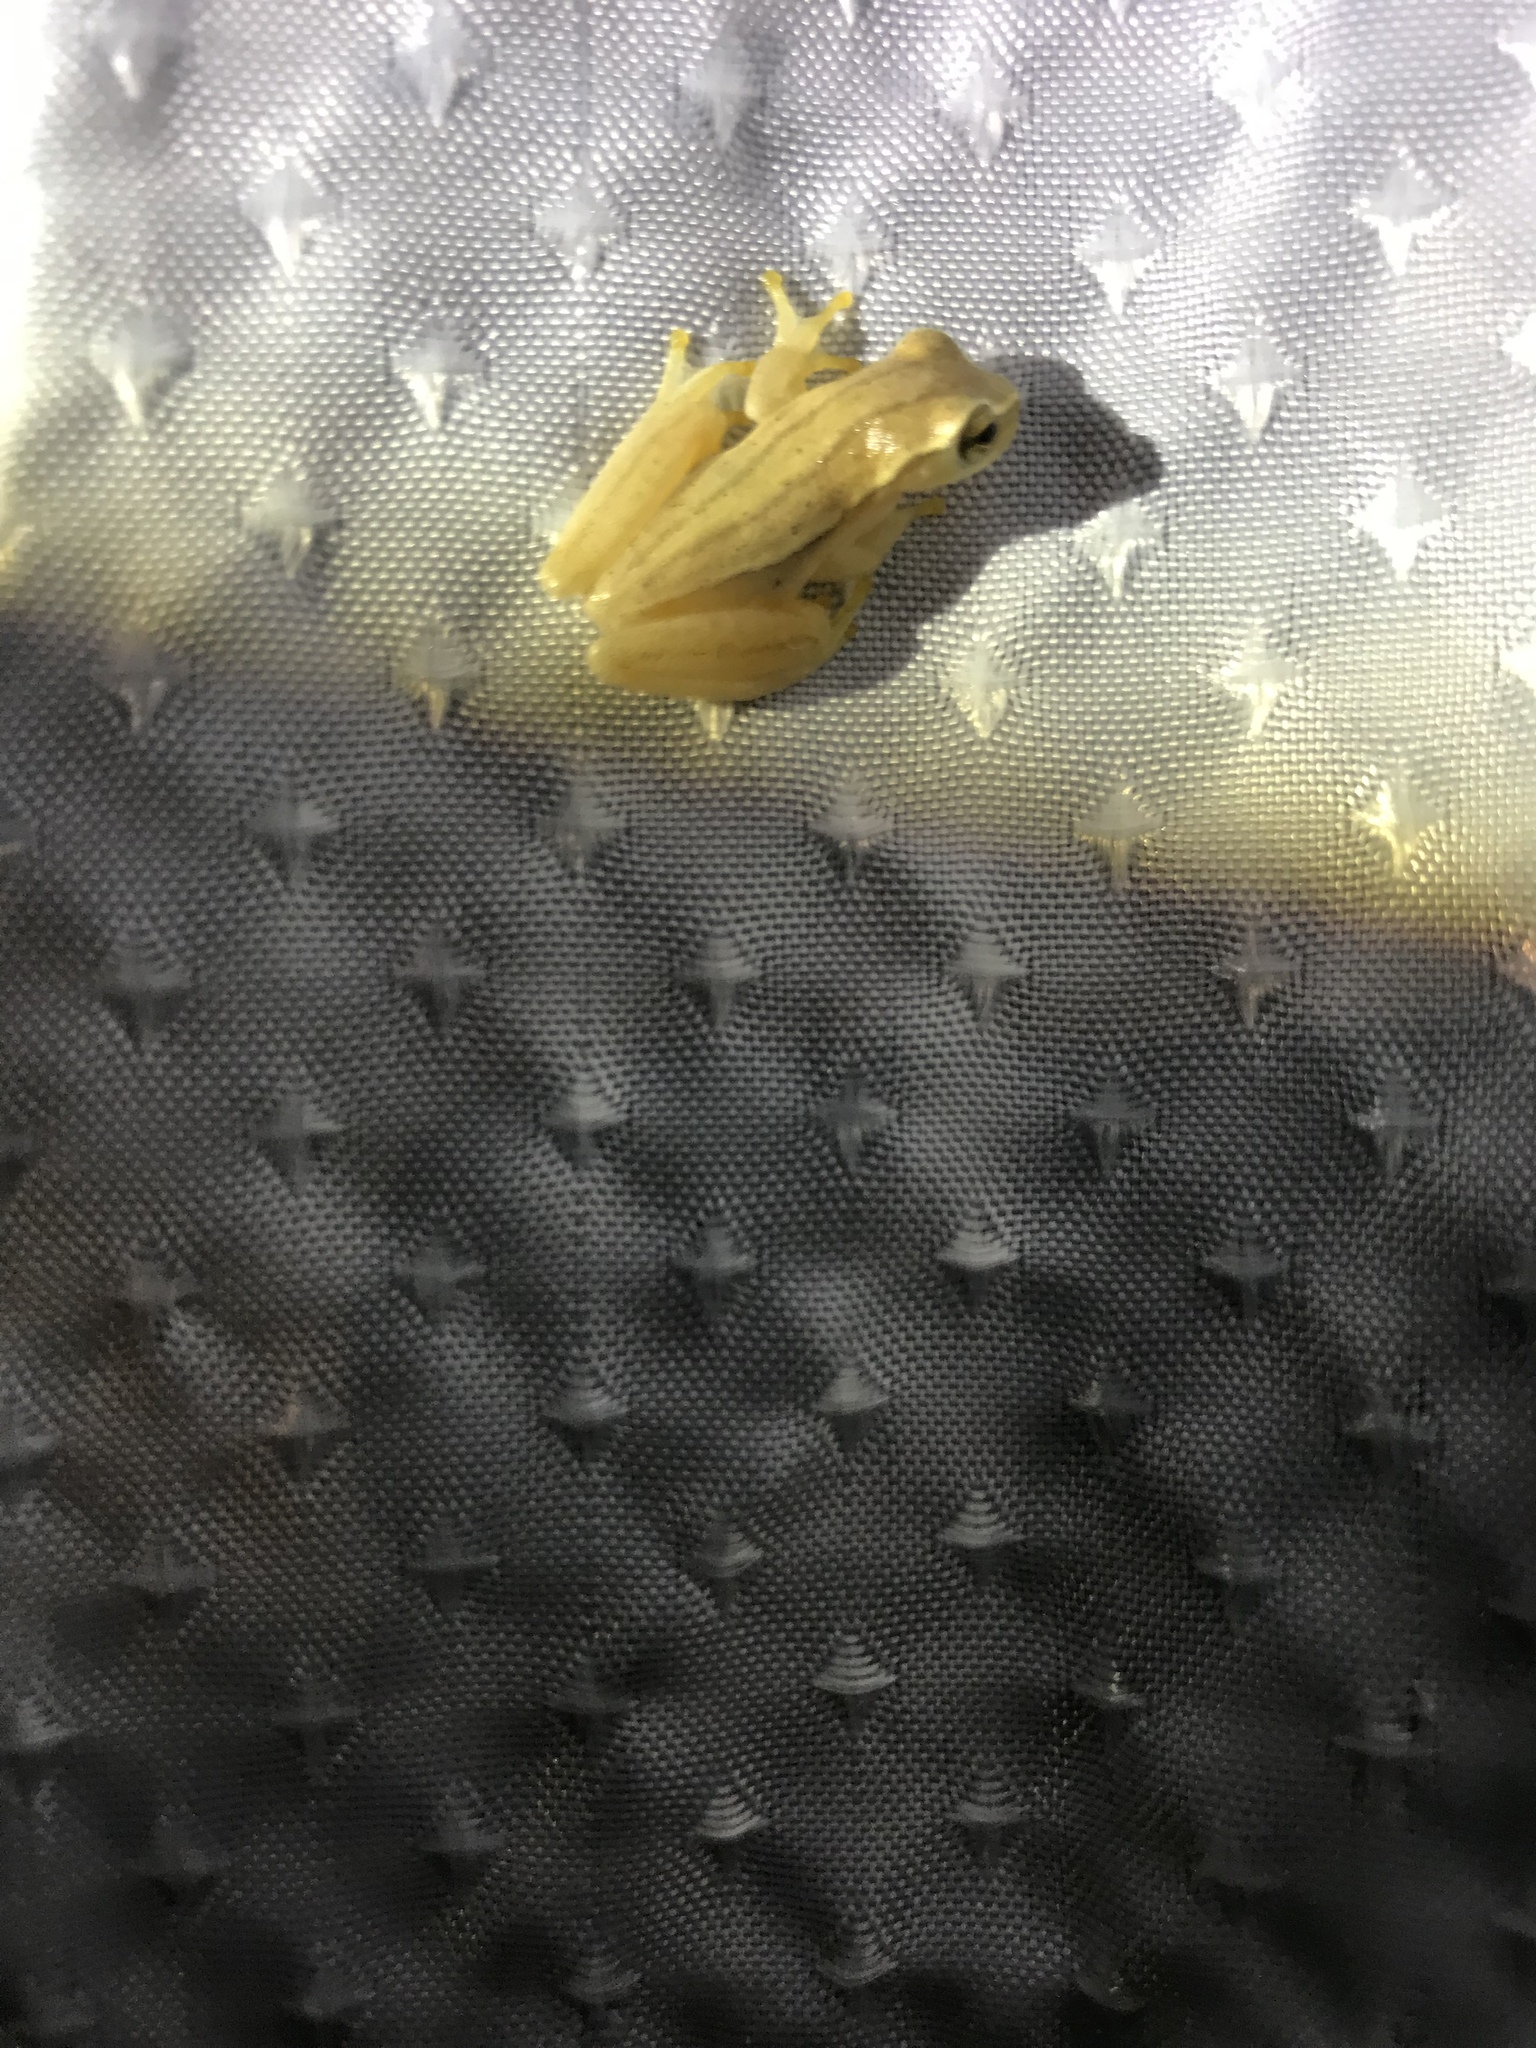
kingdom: Animalia
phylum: Chordata
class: Amphibia
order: Anura
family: Hylidae
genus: Dendropsophus
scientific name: Dendropsophus microcephalus
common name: Small-headed treefrog
